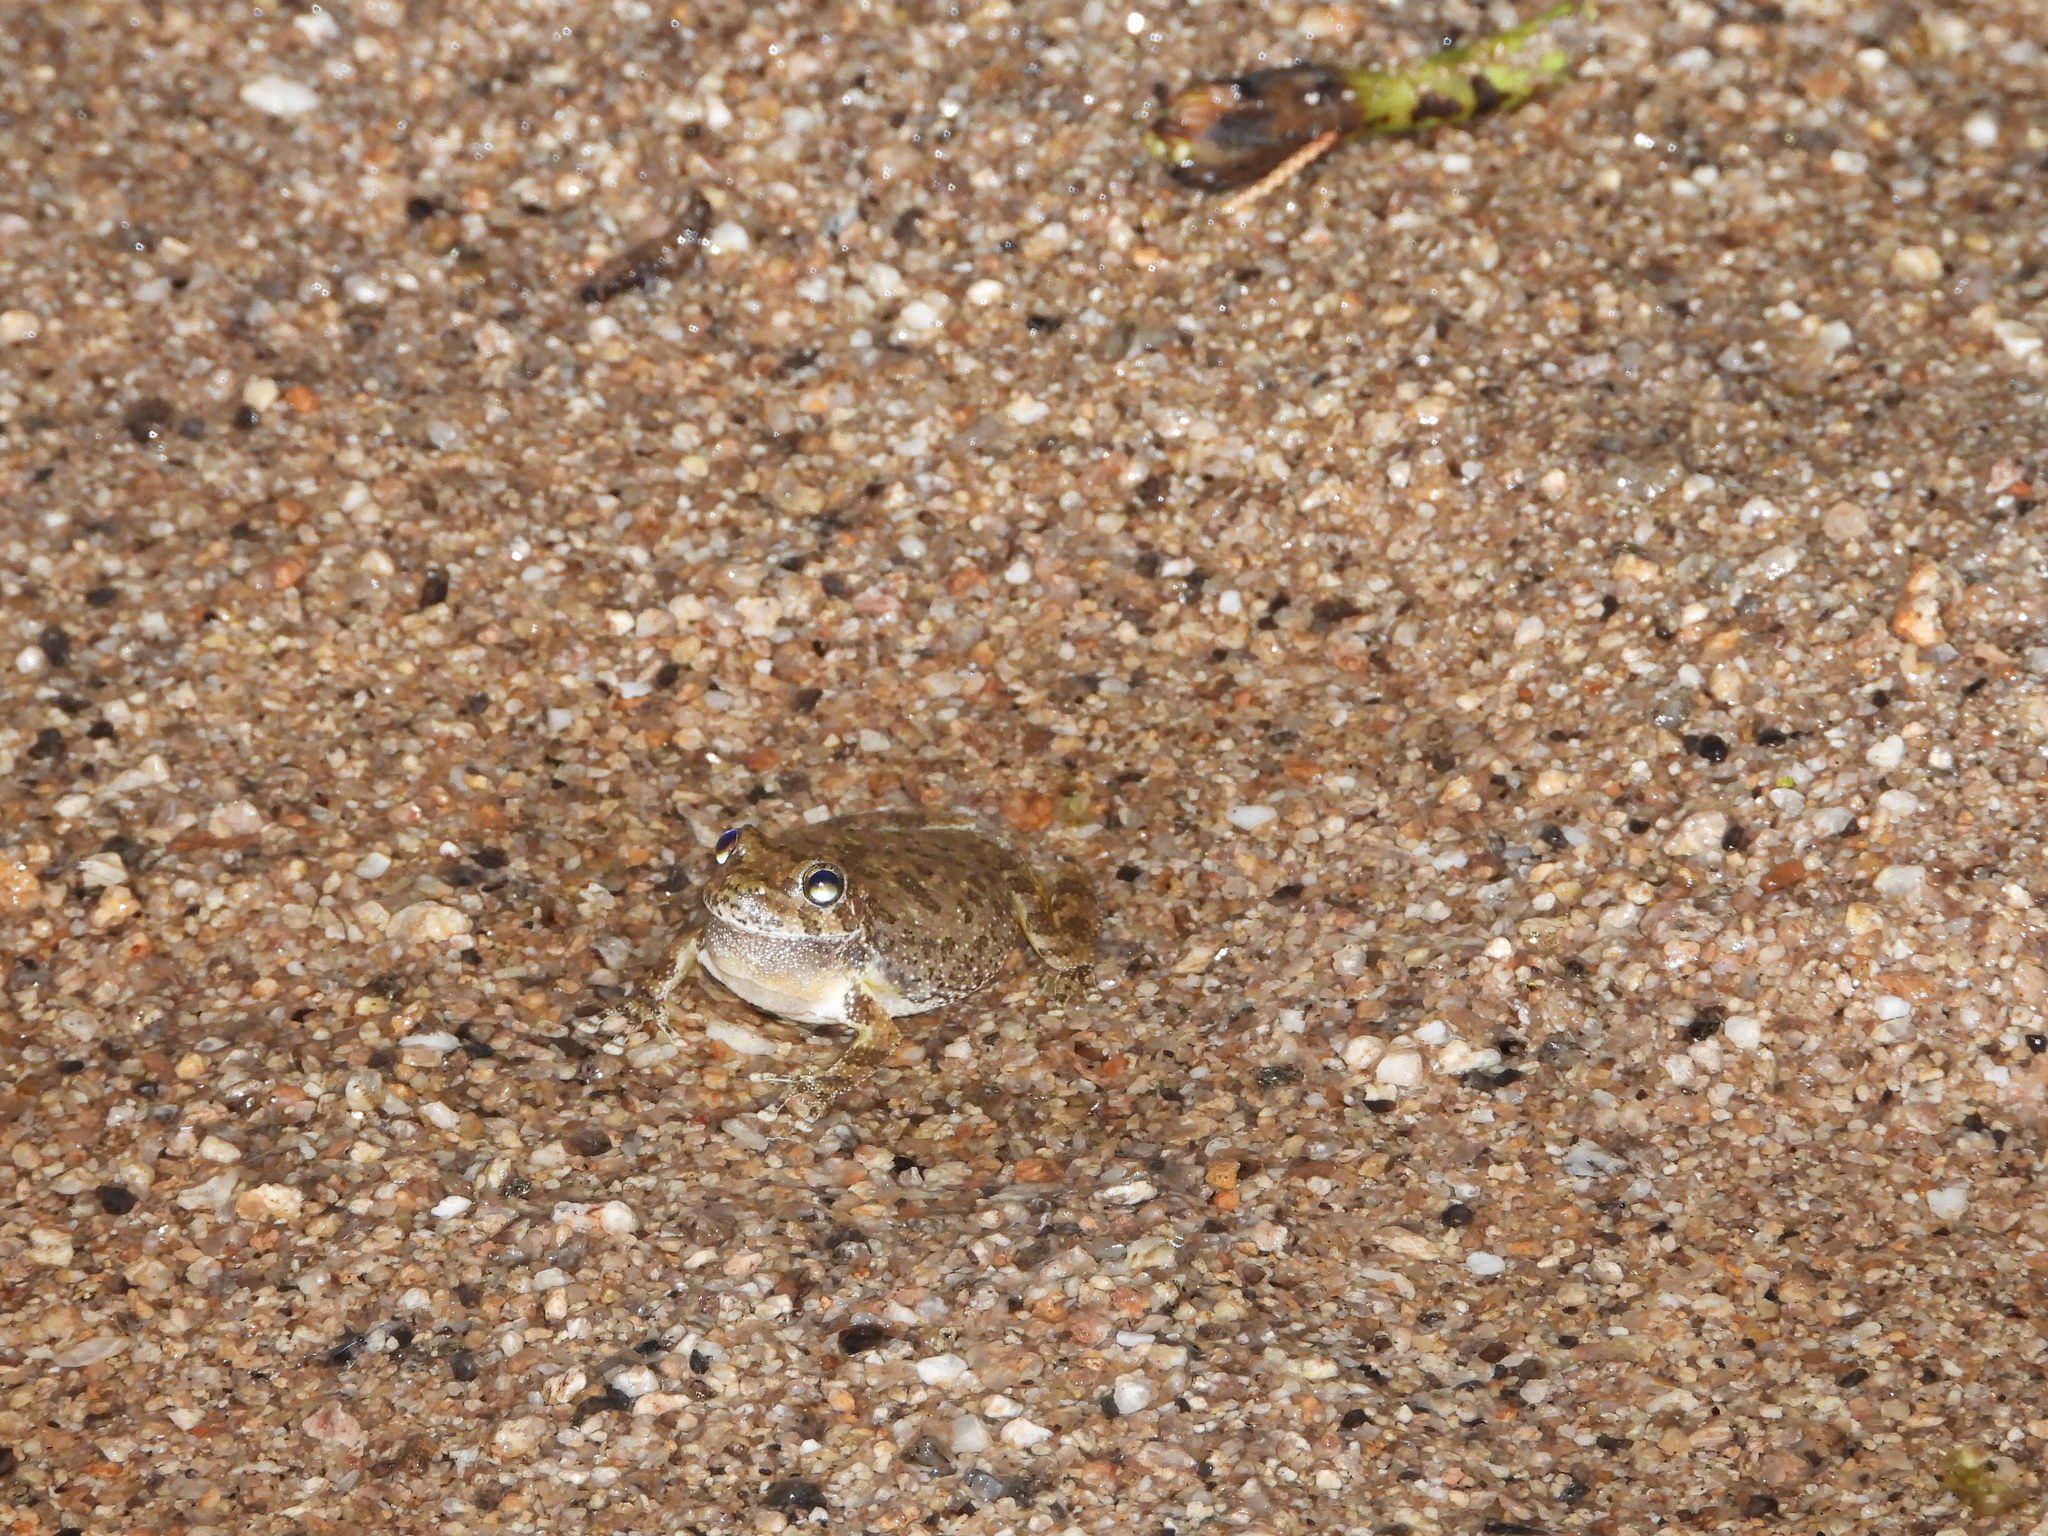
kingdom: Animalia
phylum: Chordata
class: Amphibia
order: Anura
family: Hylidae
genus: Dryophytes
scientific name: Dryophytes arenicolor
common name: Canyon treefrog
